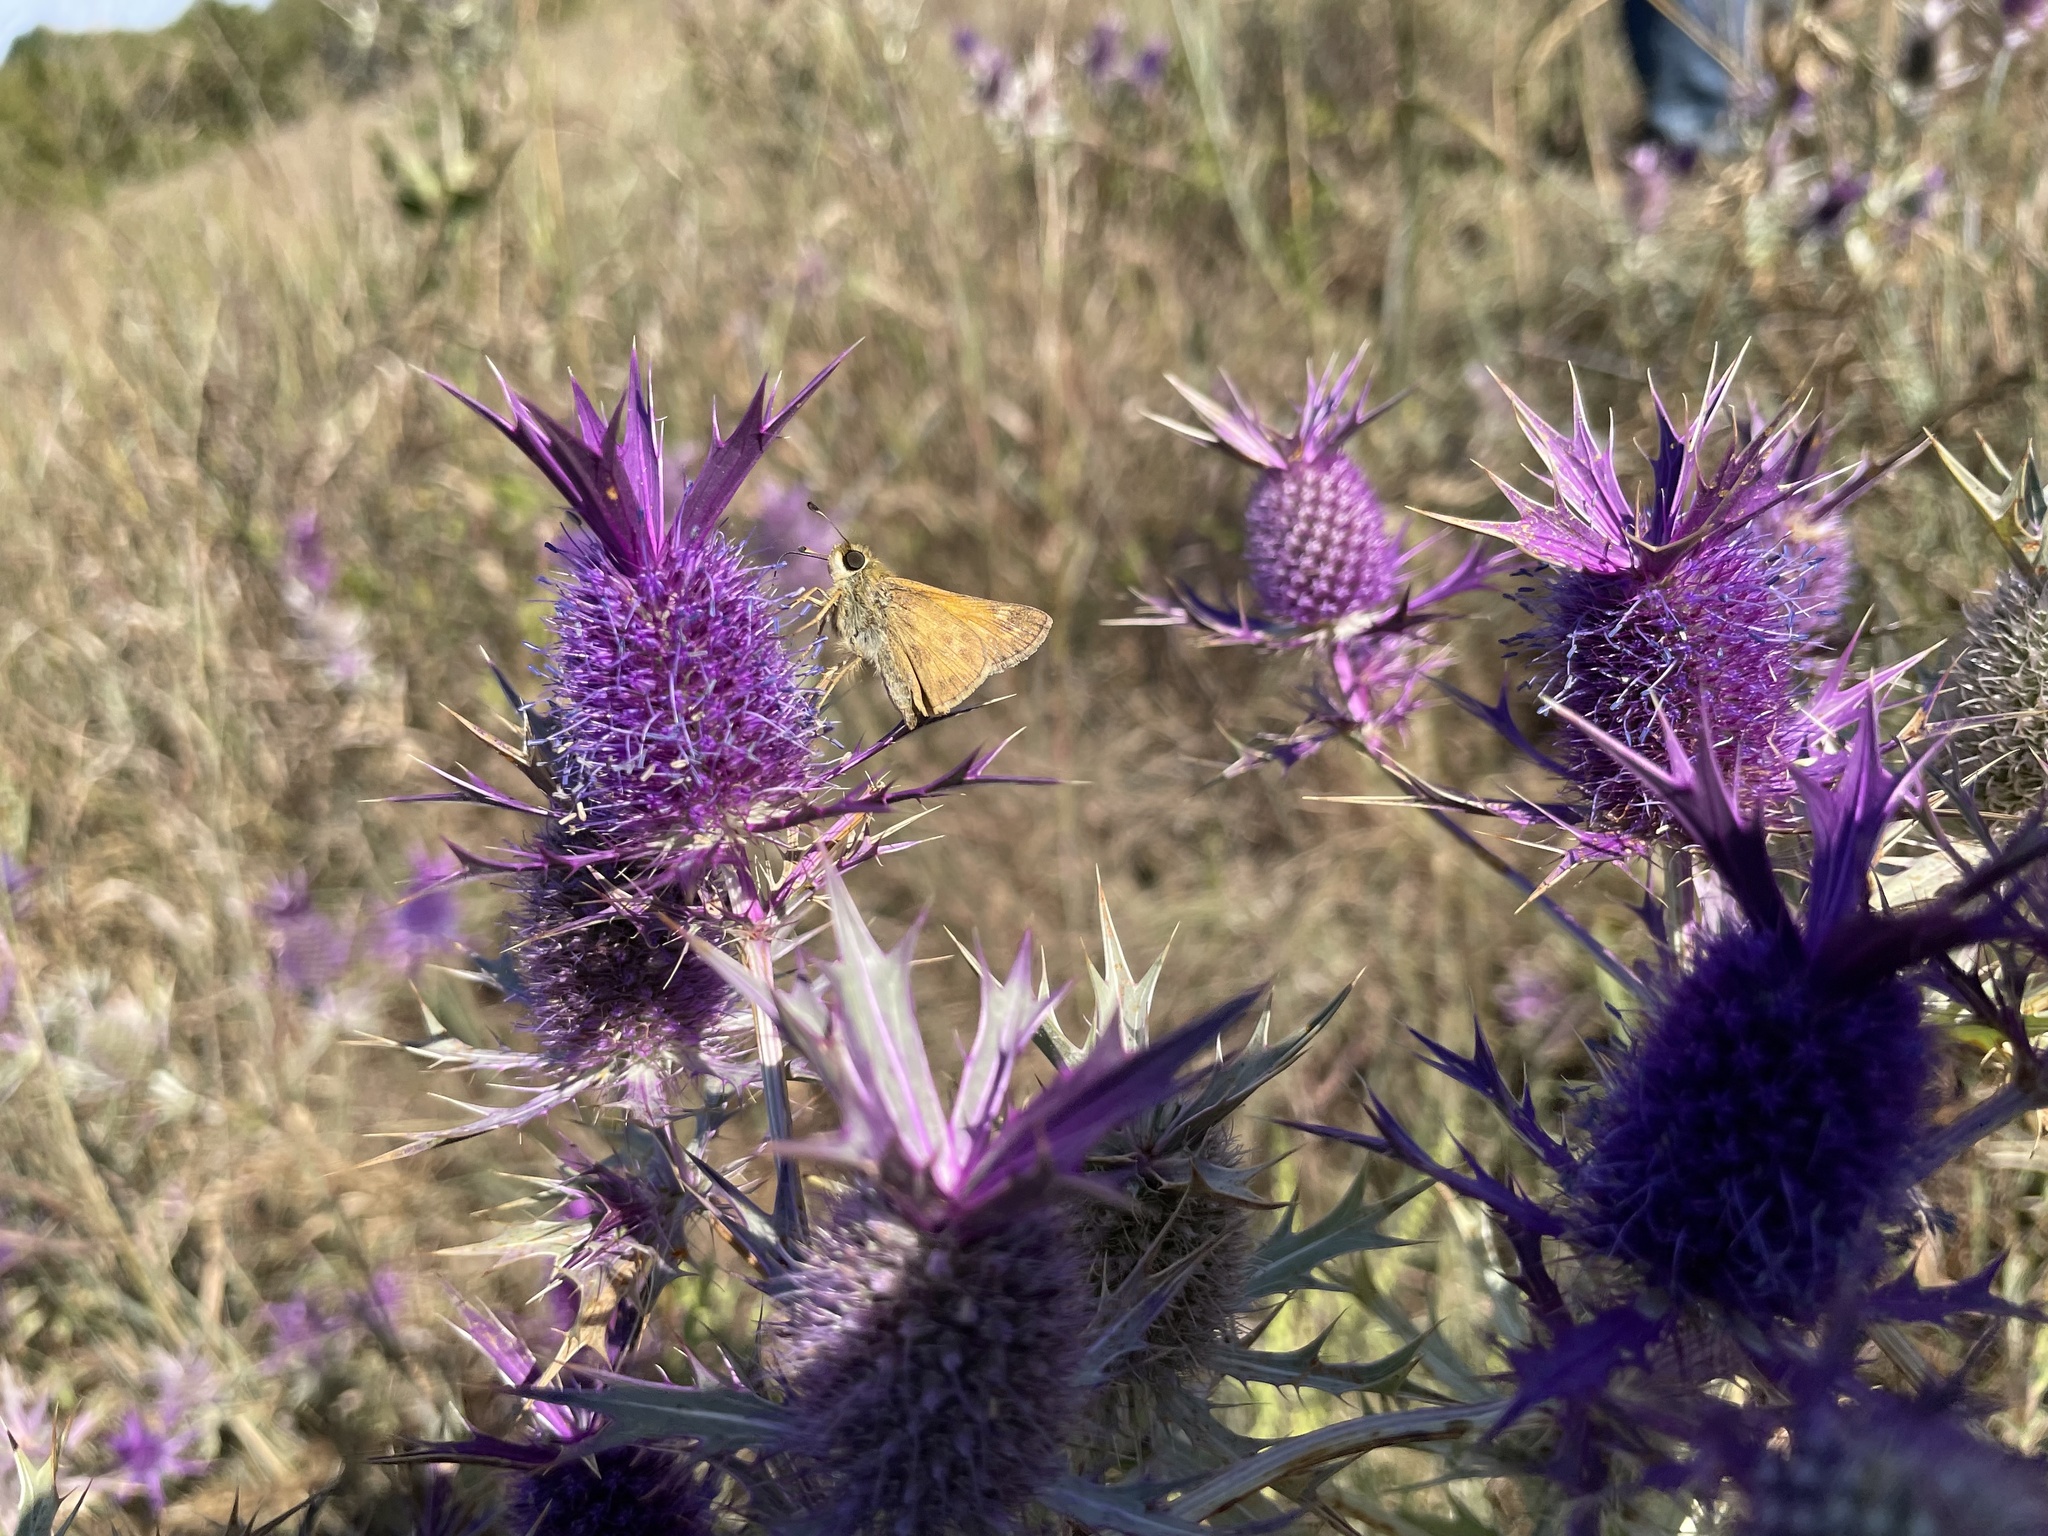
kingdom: Animalia
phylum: Arthropoda
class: Insecta
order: Lepidoptera
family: Hesperiidae
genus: Atalopedes
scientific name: Atalopedes
